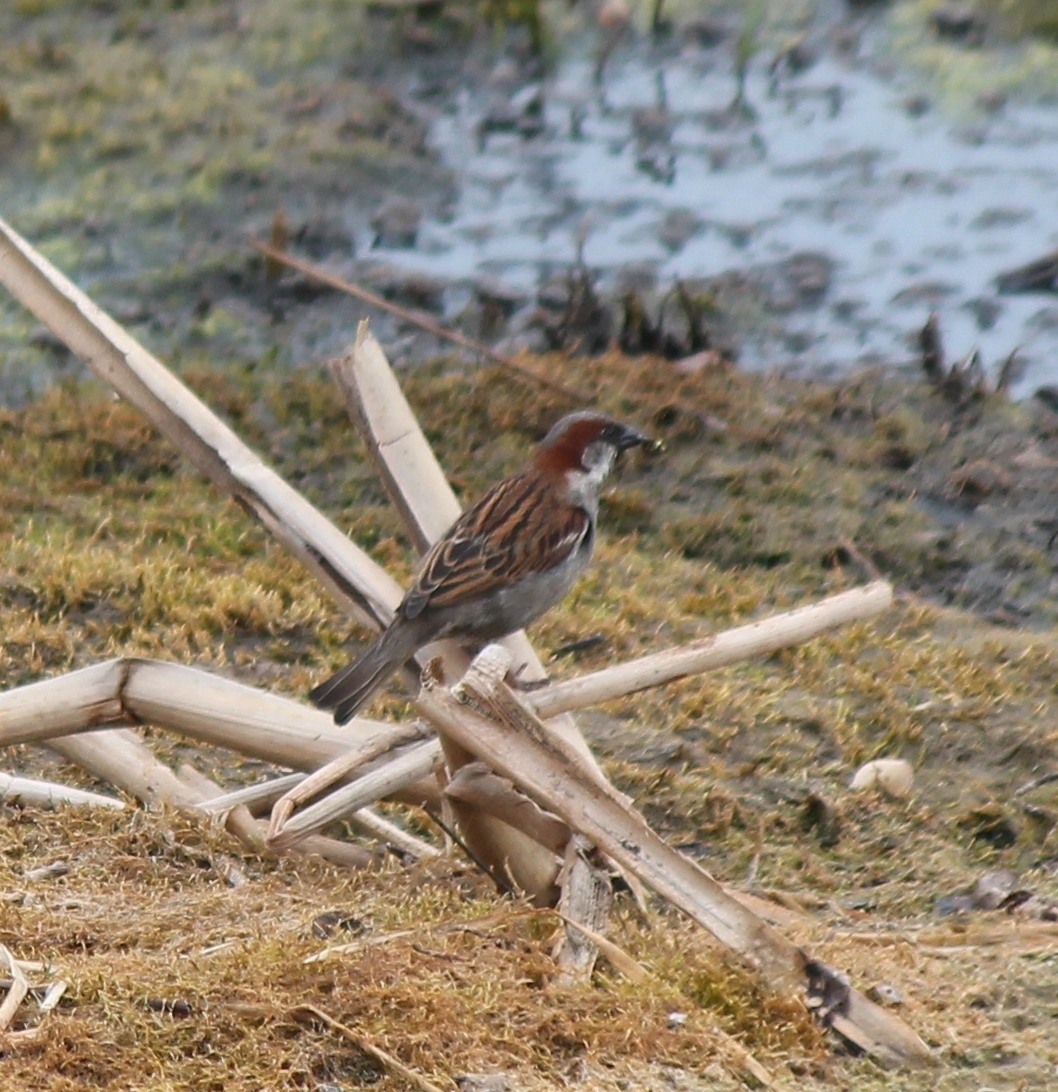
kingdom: Animalia
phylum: Chordata
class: Aves
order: Passeriformes
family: Passeridae
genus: Passer
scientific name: Passer domesticus
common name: House sparrow
